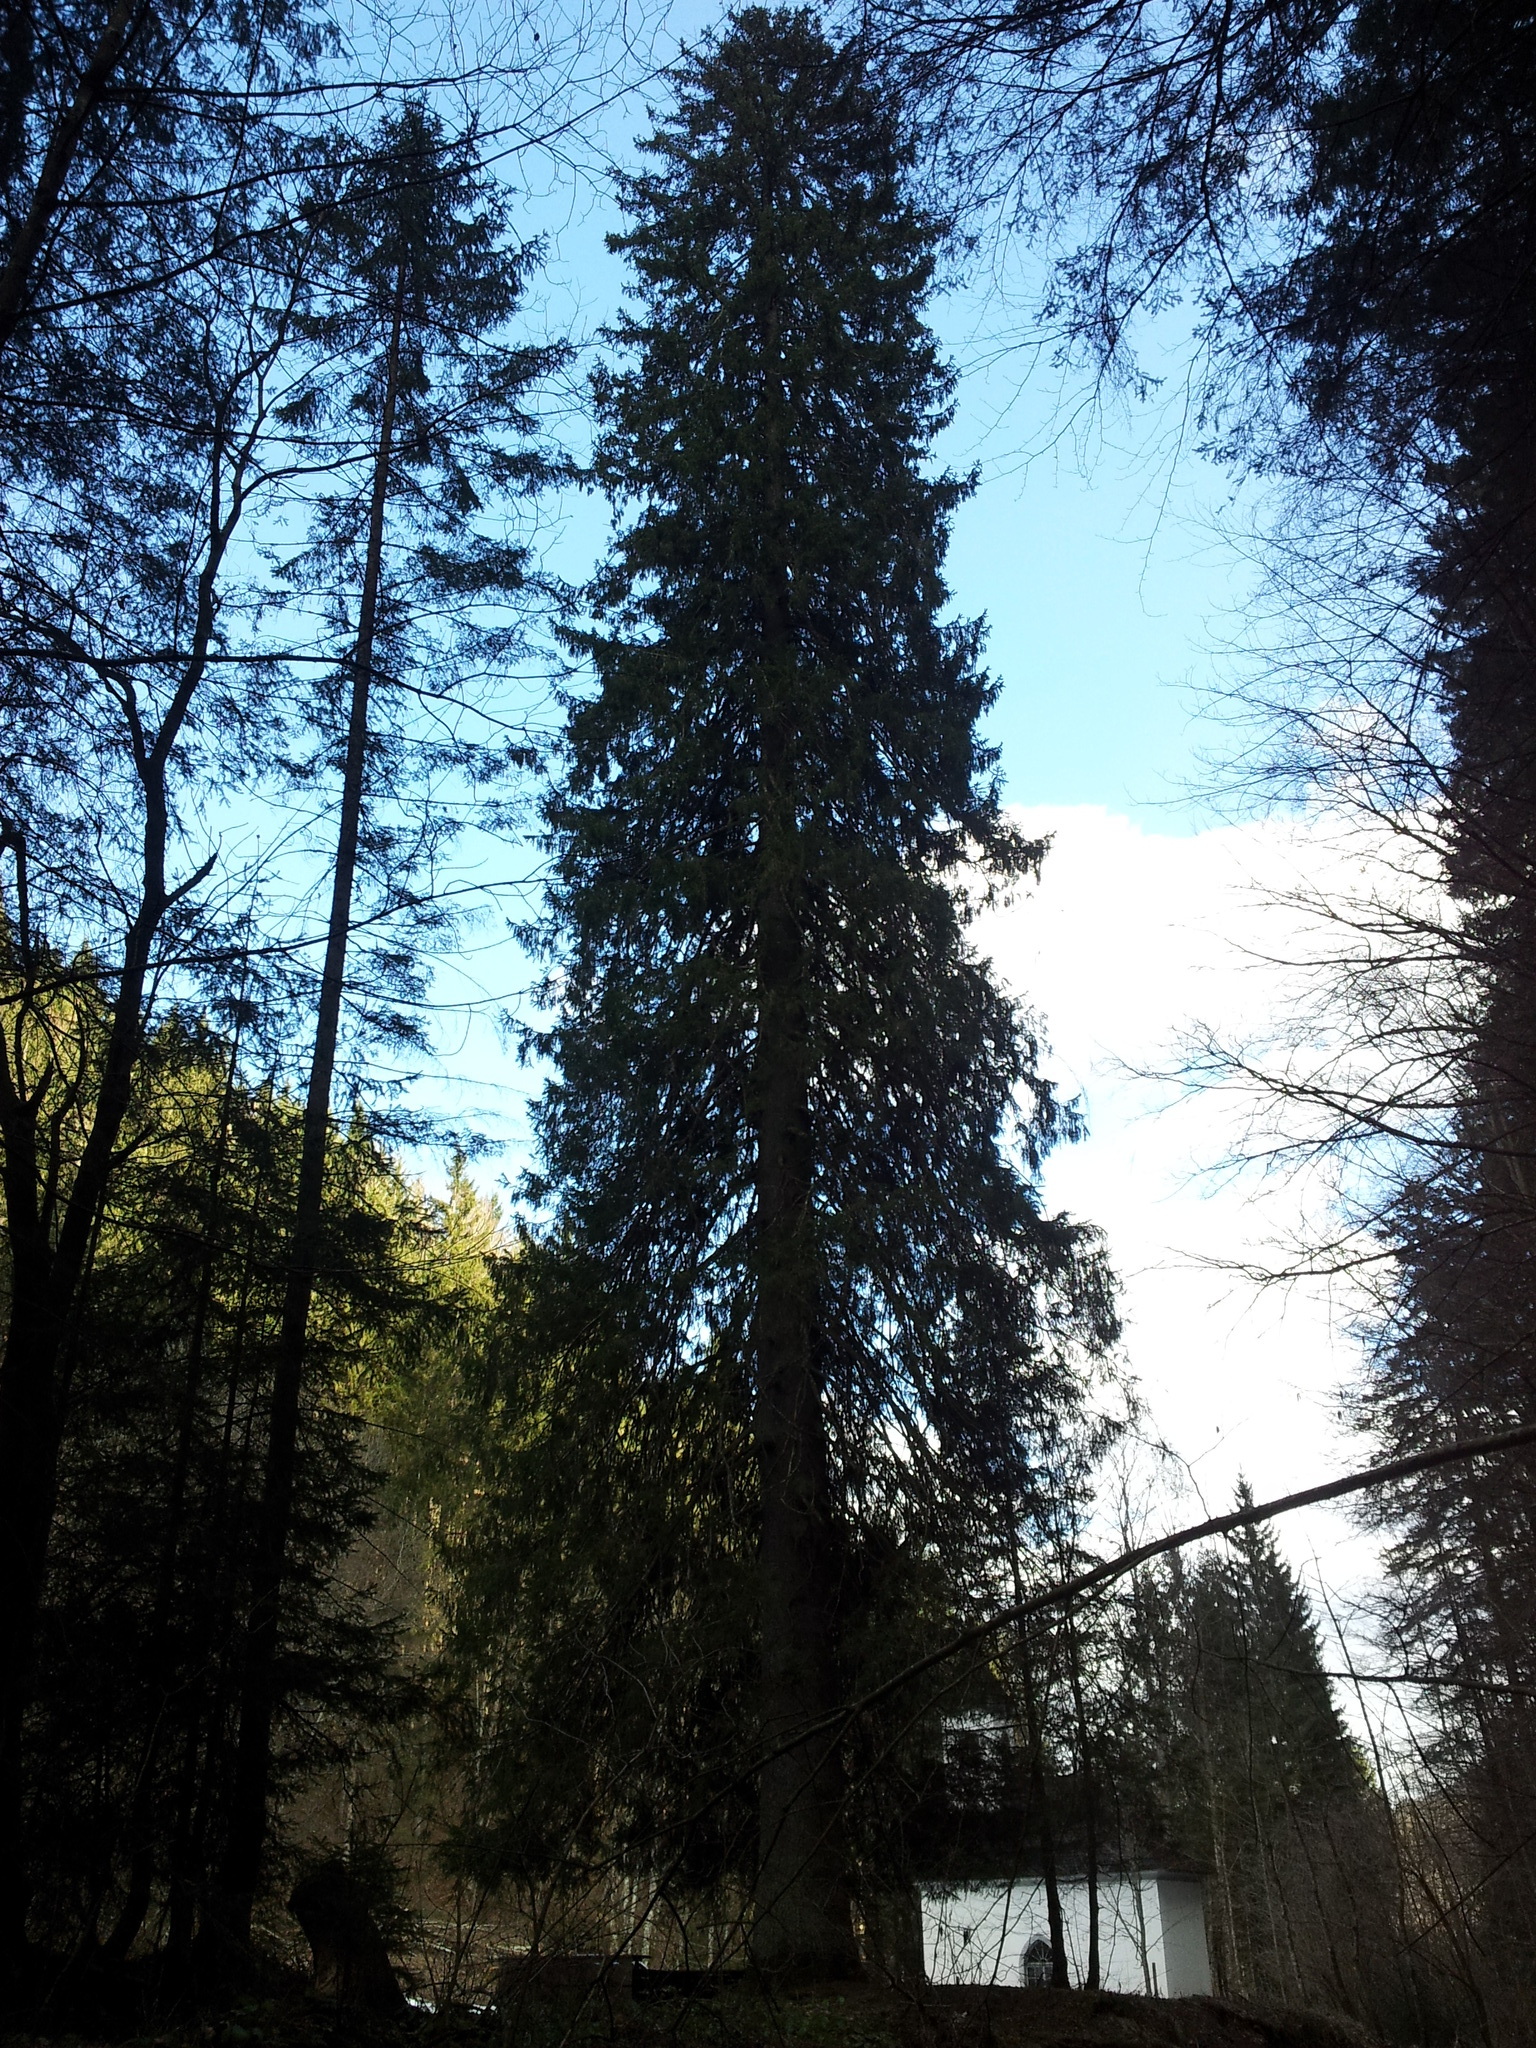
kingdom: Plantae
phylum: Tracheophyta
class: Pinopsida
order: Pinales
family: Pinaceae
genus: Picea
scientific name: Picea abies
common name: Norway spruce
